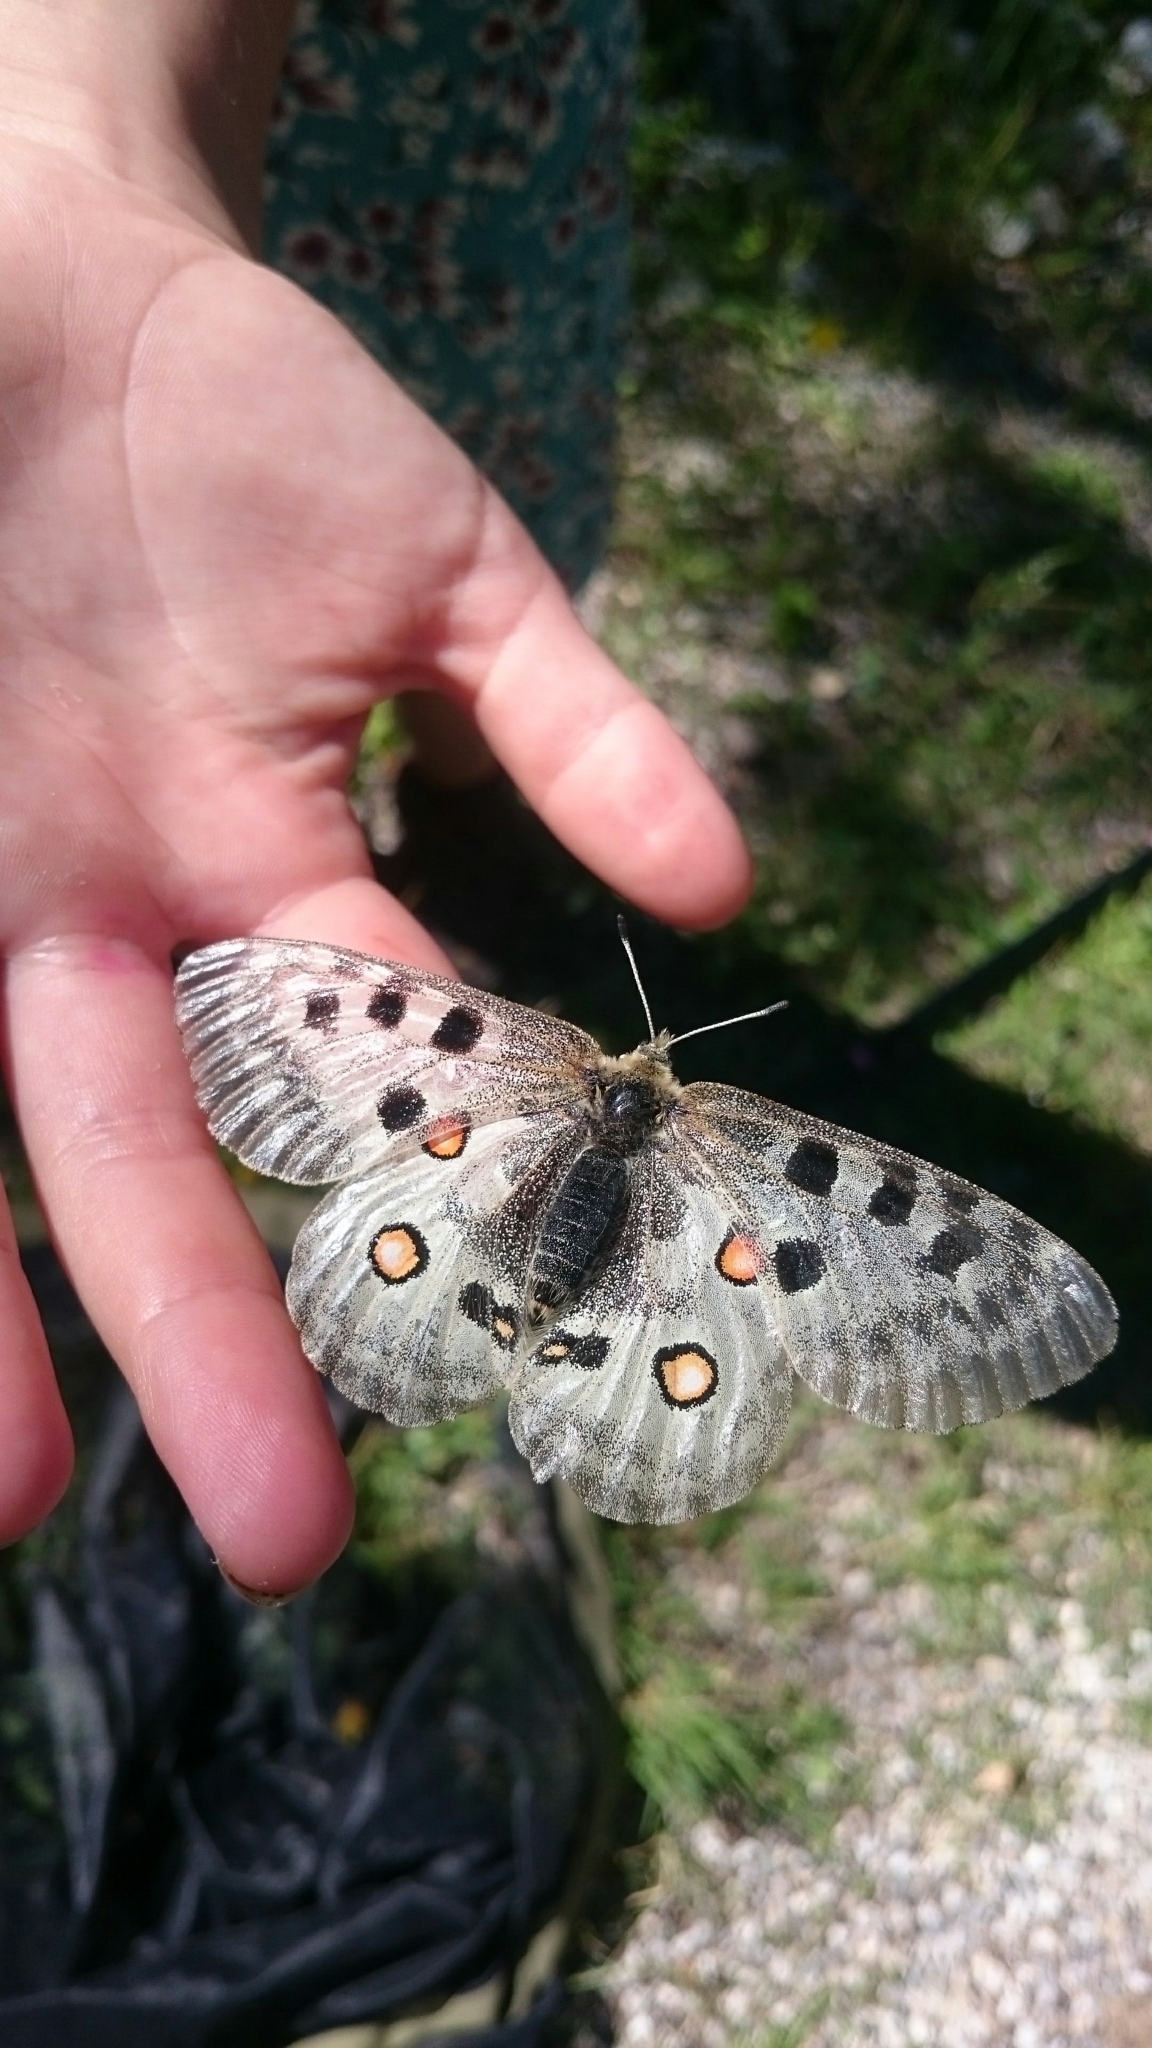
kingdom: Animalia
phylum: Arthropoda
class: Insecta
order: Lepidoptera
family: Papilionidae
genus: Parnassius
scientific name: Parnassius apollo
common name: Apollo
